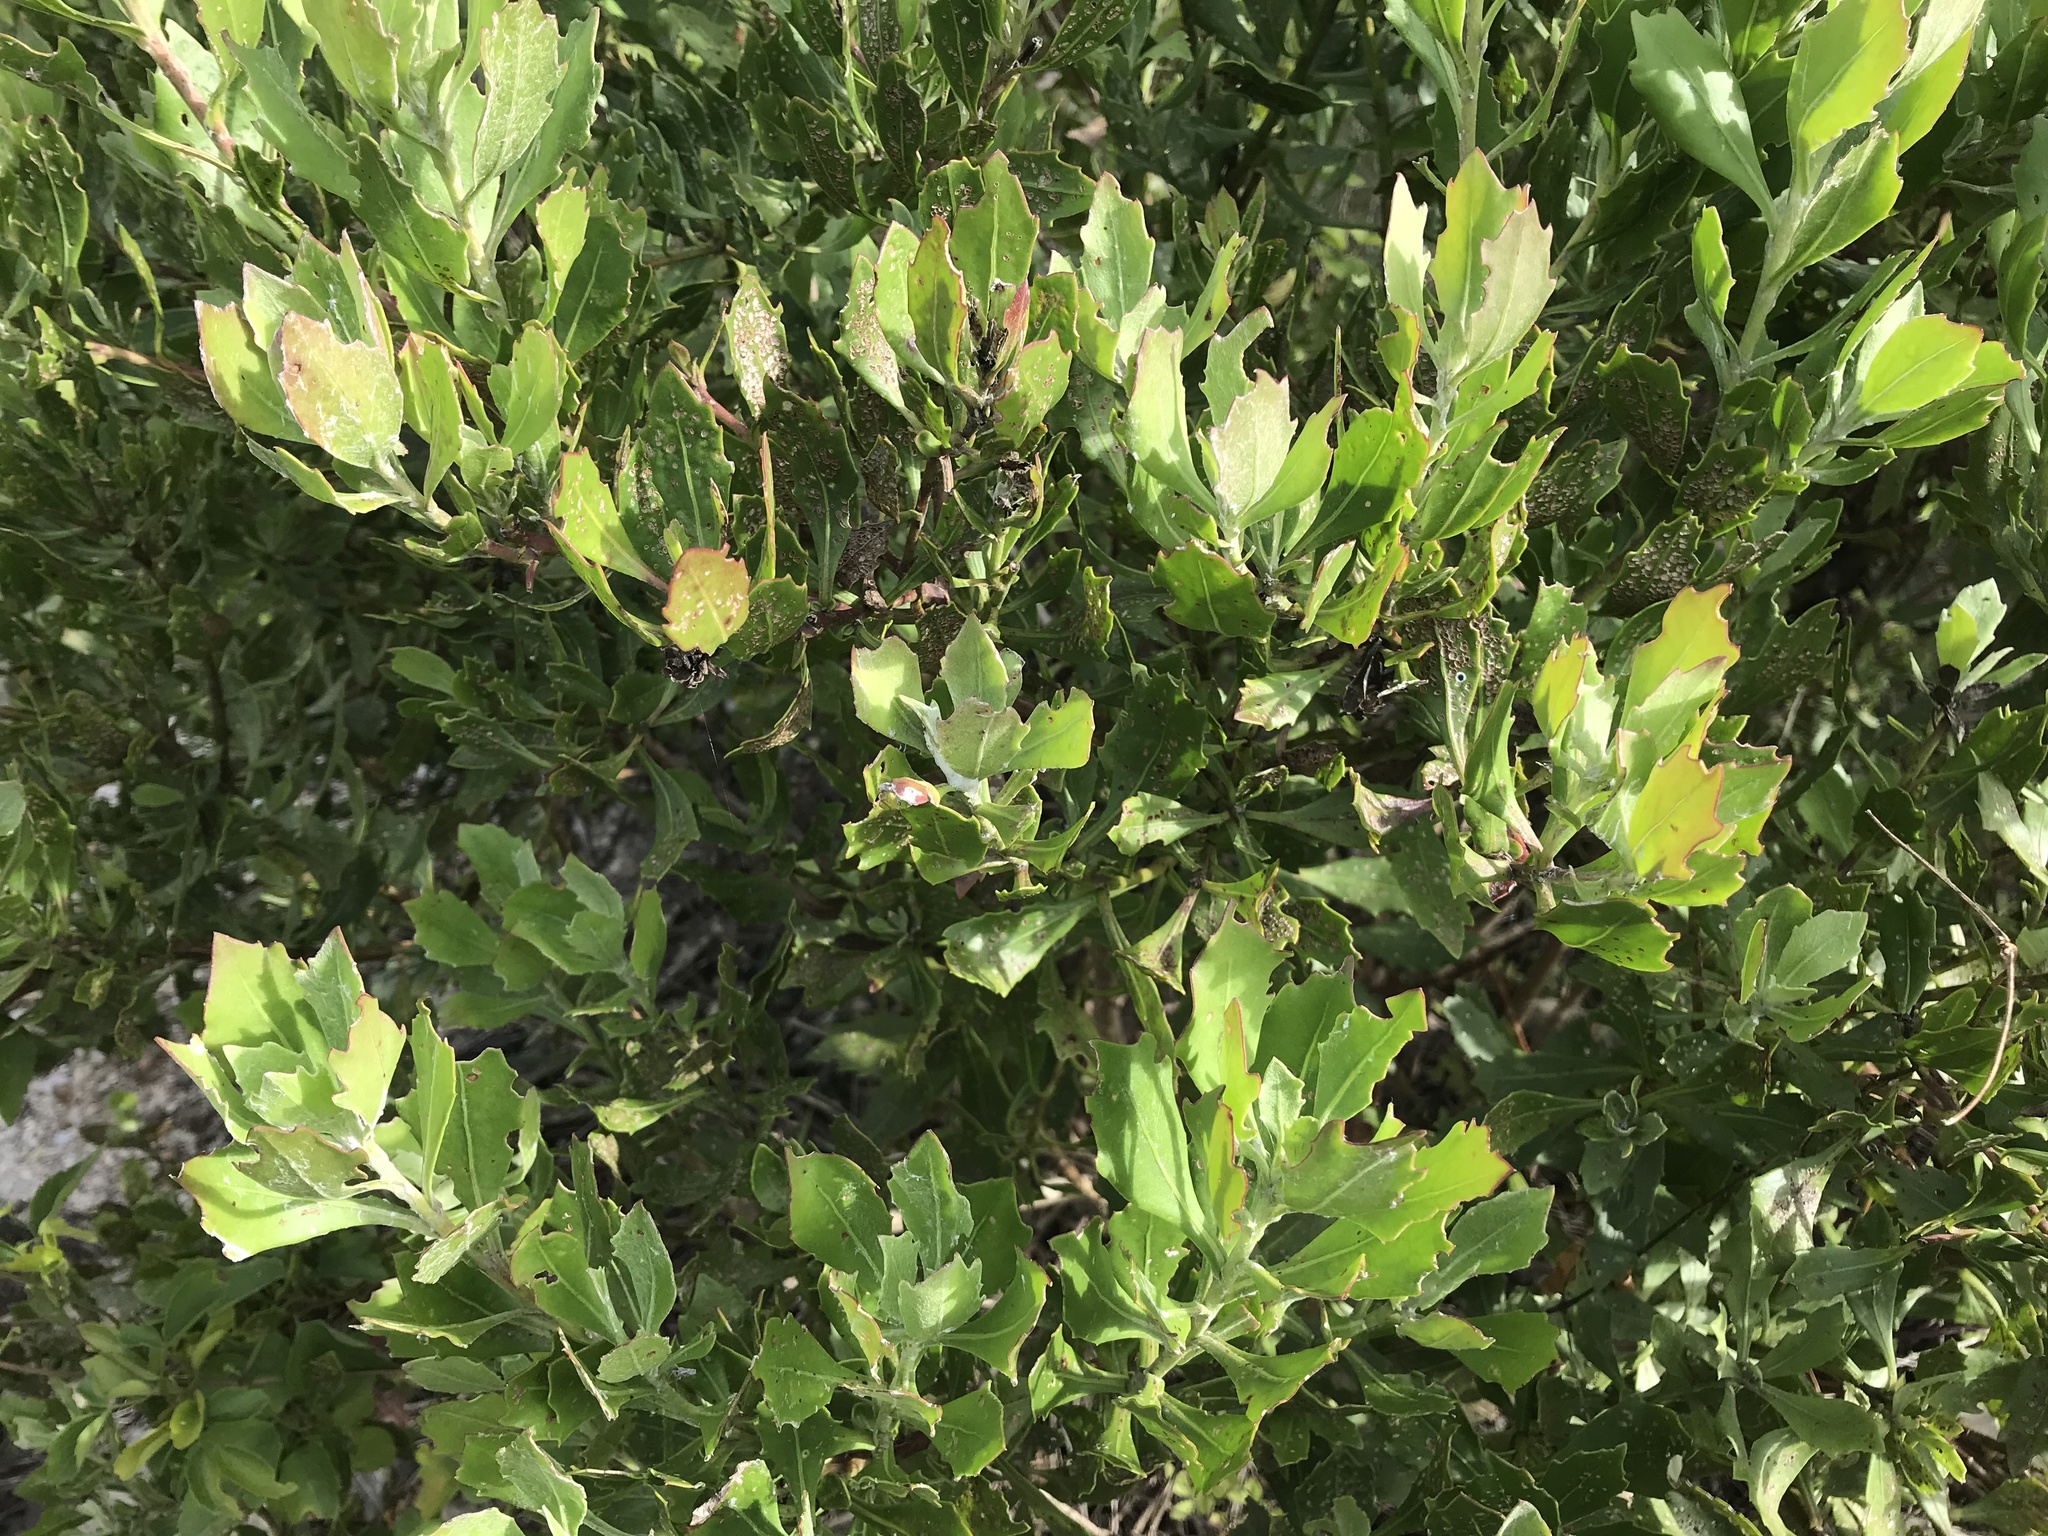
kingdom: Plantae
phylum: Tracheophyta
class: Magnoliopsida
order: Asterales
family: Asteraceae
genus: Osteospermum
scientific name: Osteospermum moniliferum
